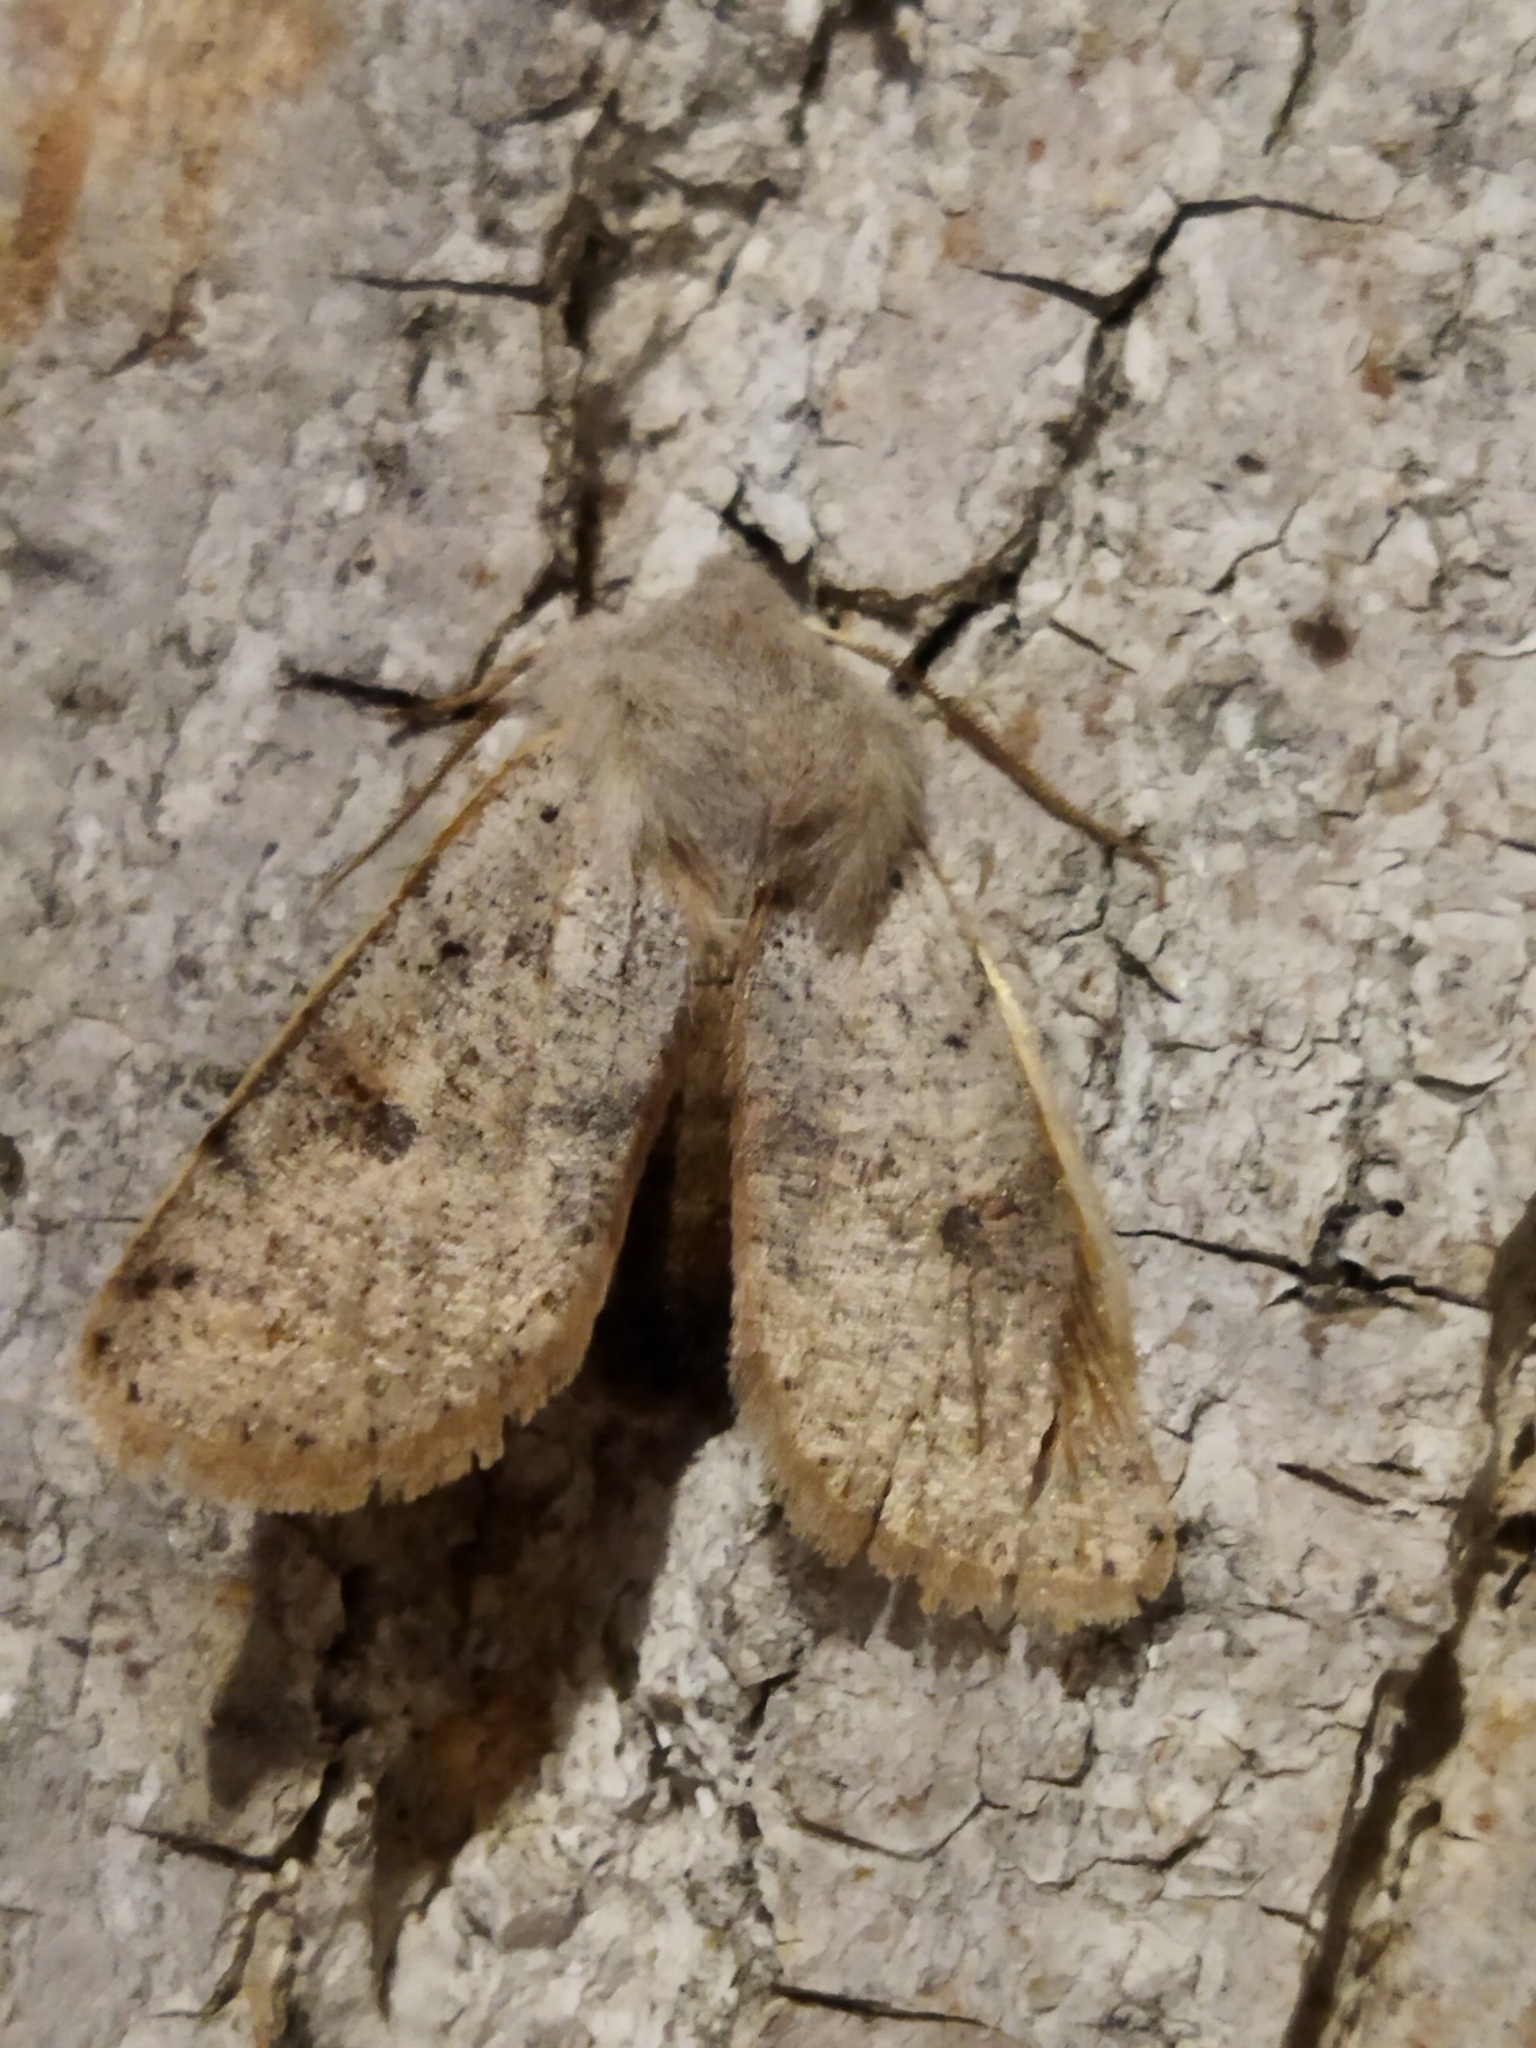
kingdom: Animalia
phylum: Arthropoda
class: Insecta
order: Lepidoptera
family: Noctuidae
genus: Perigrapha
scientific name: Perigrapha rorida
